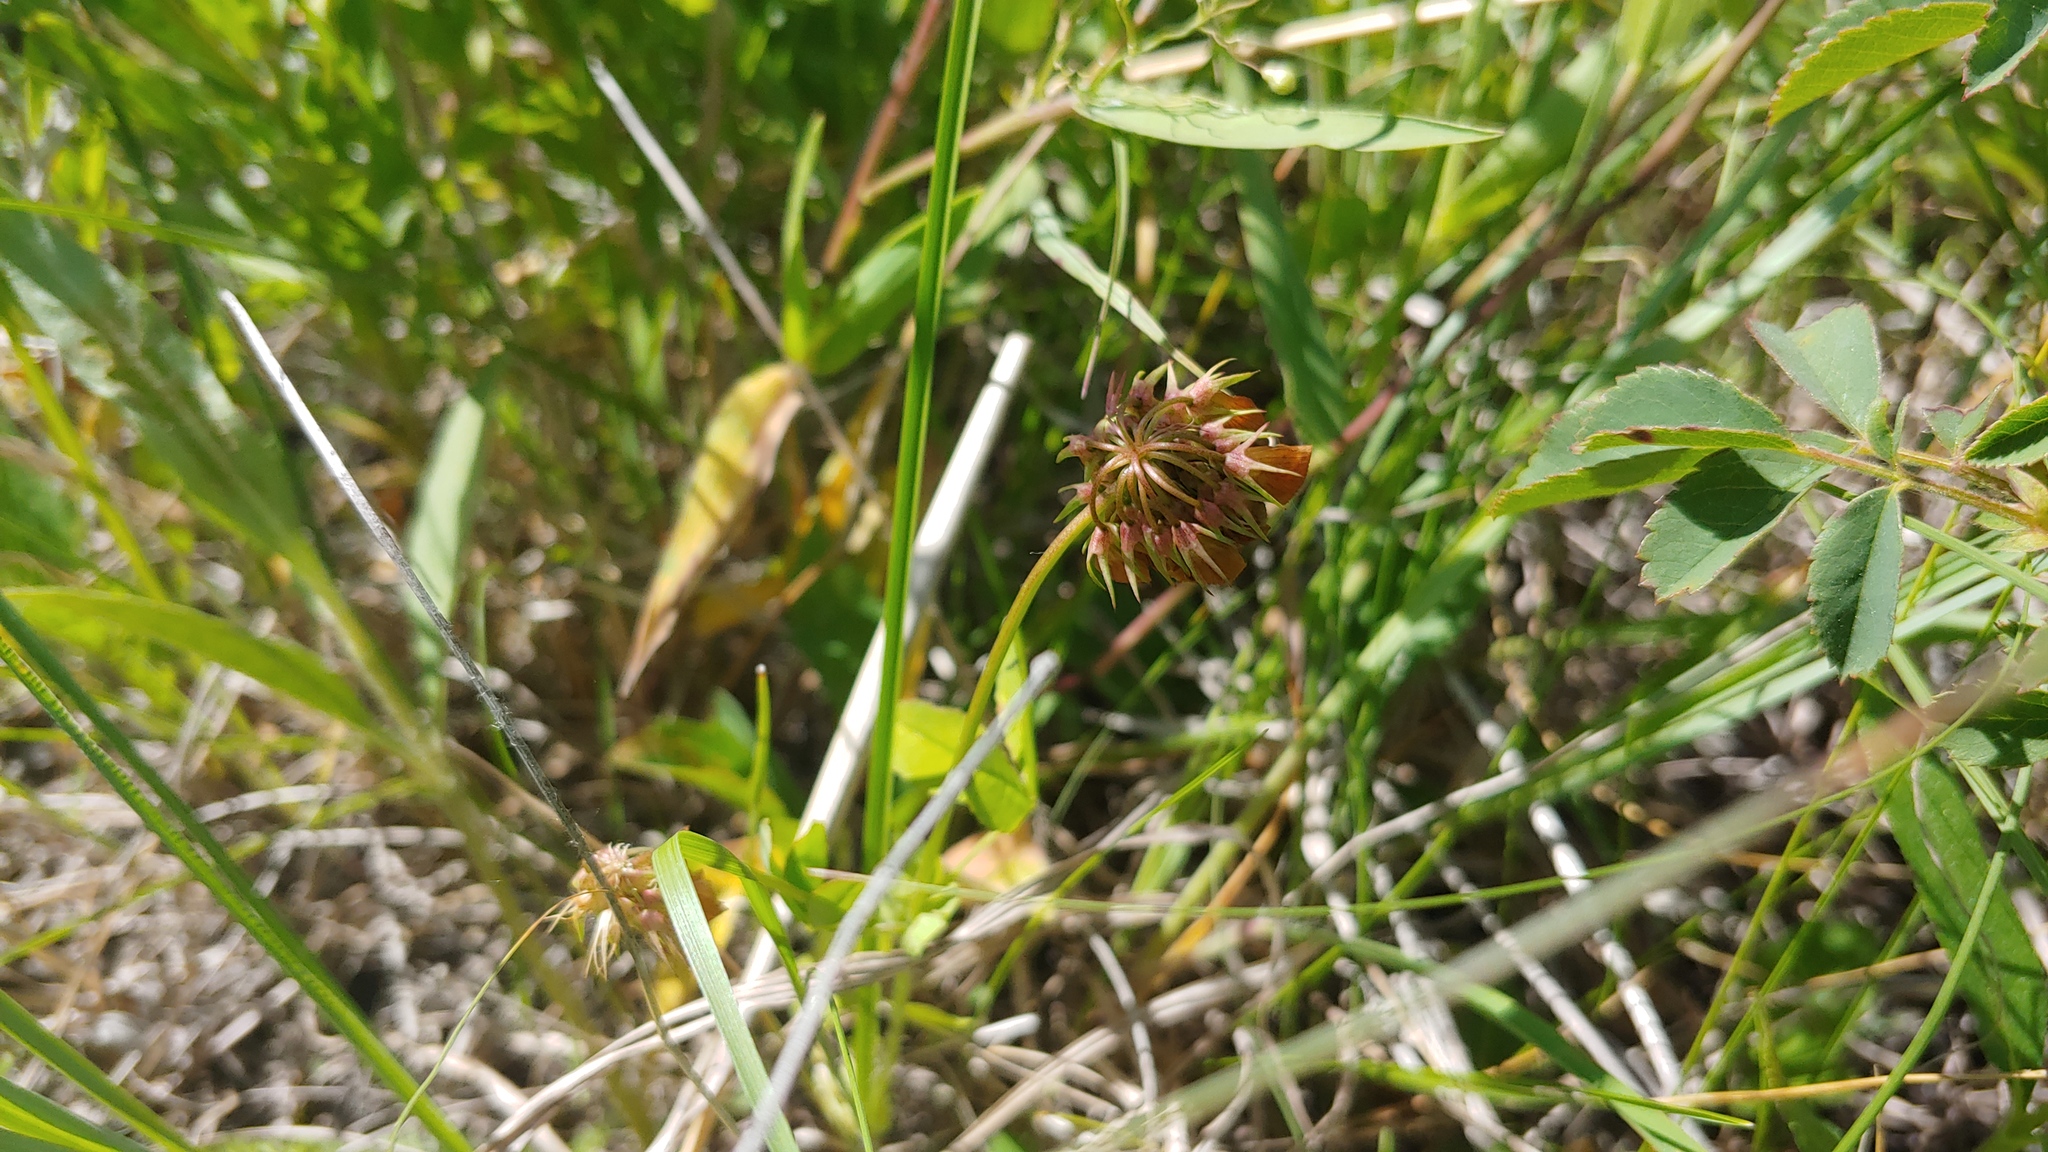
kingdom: Plantae
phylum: Tracheophyta
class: Magnoliopsida
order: Fabales
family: Fabaceae
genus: Trifolium
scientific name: Trifolium reflexum
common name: Buffalo clover
